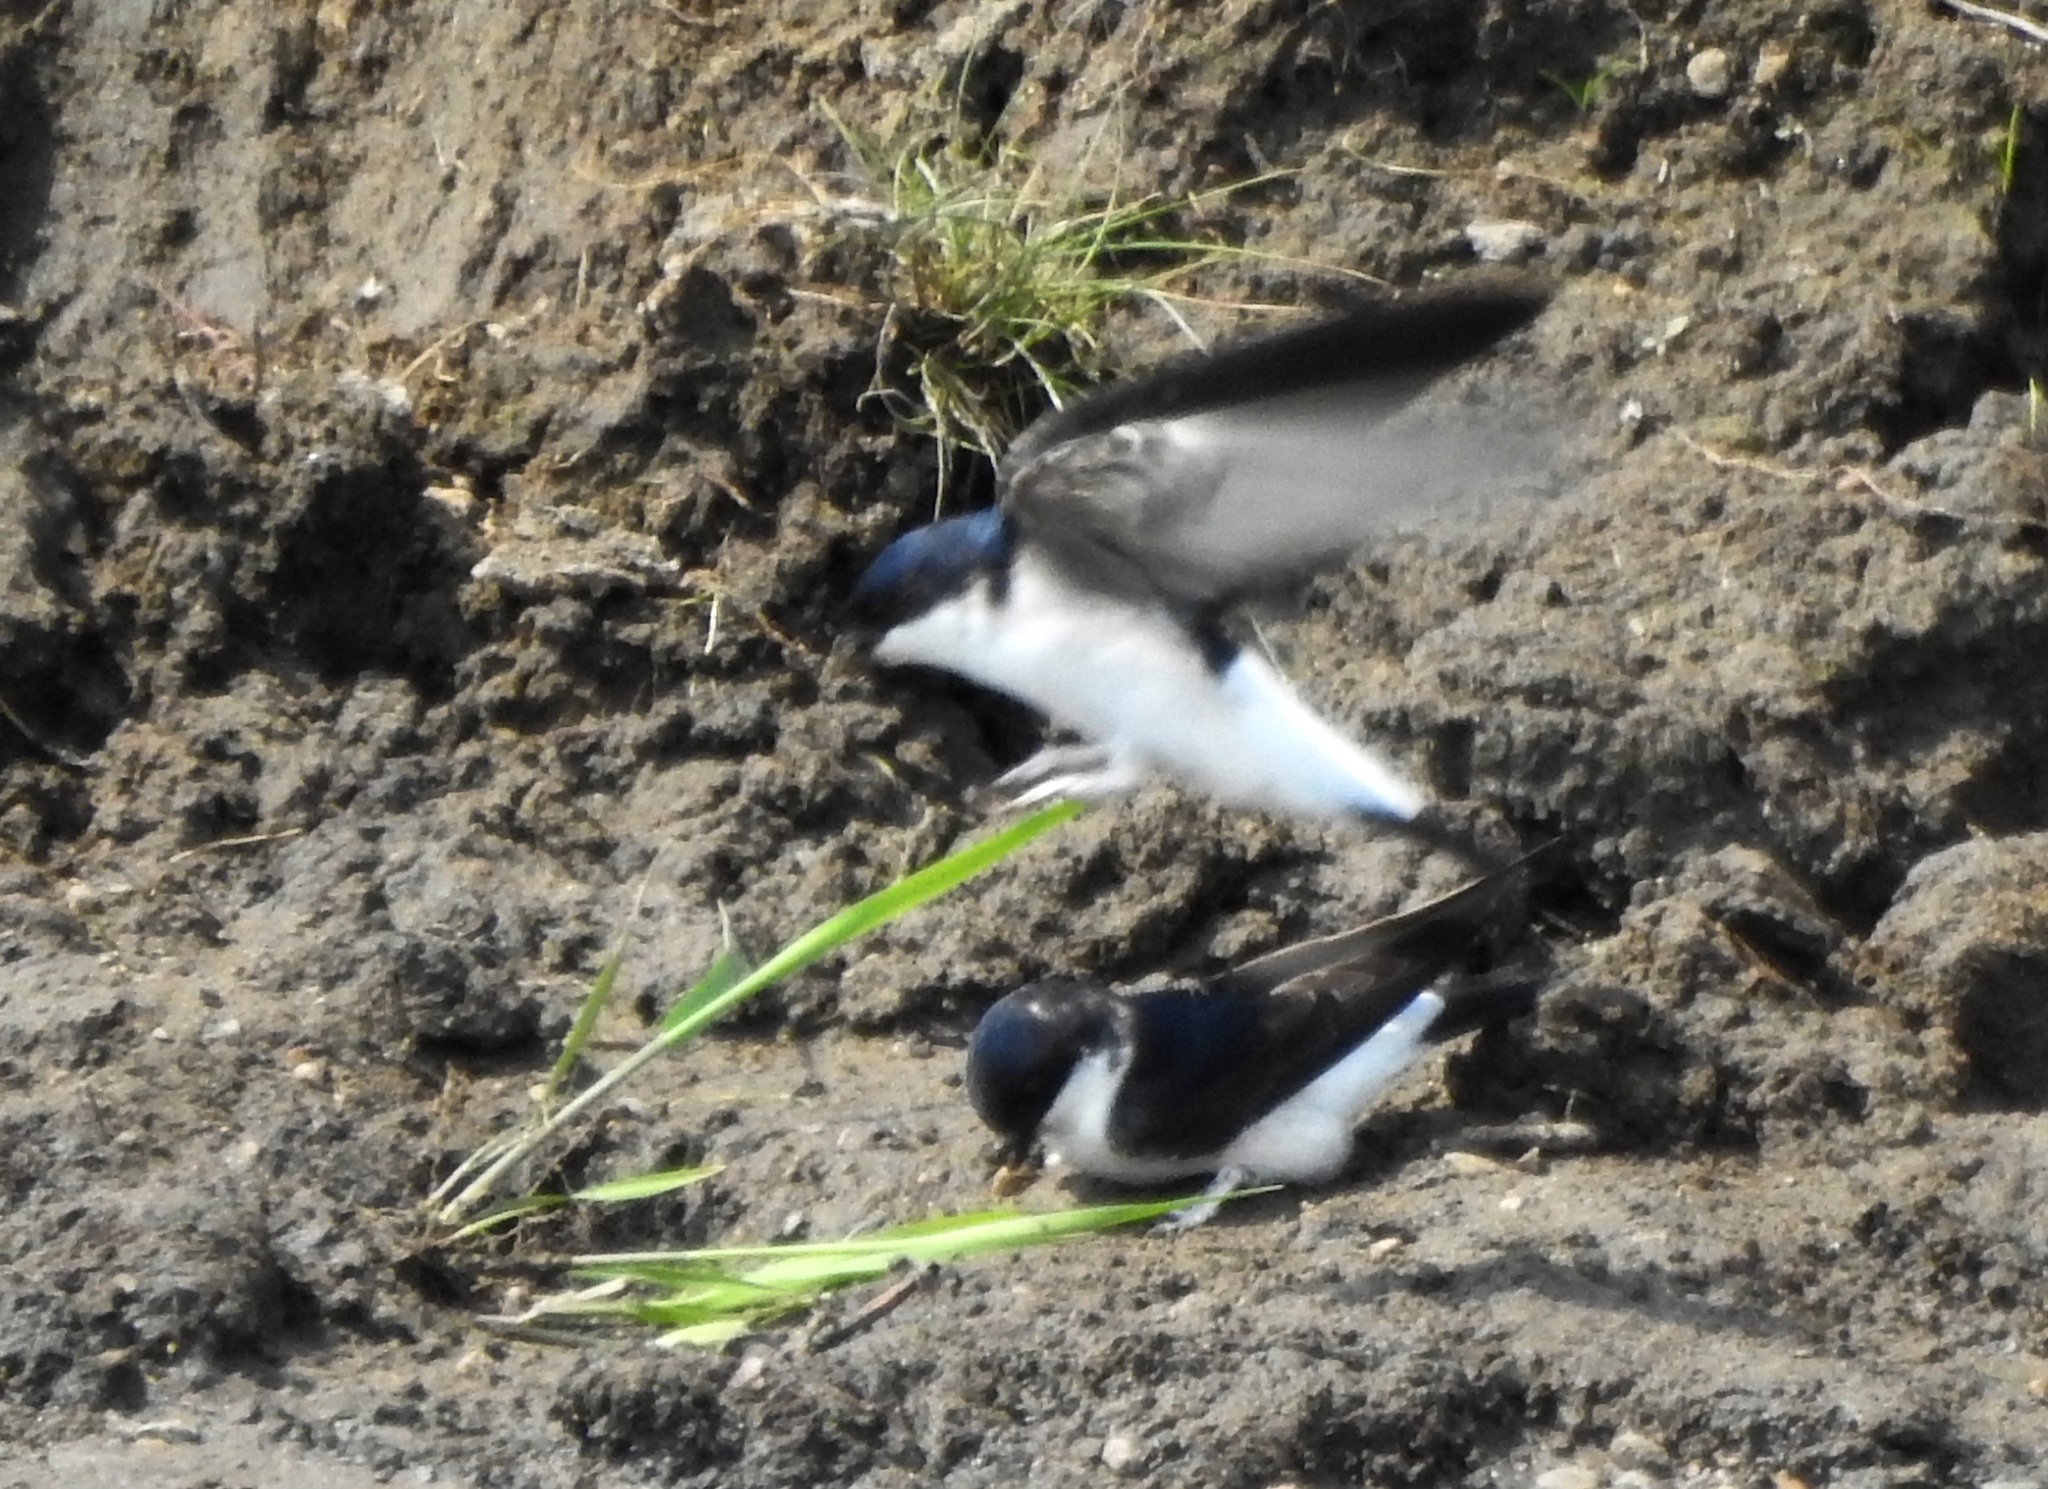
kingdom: Animalia
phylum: Chordata
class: Aves
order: Passeriformes
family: Hirundinidae
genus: Delichon
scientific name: Delichon urbicum
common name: Common house martin
